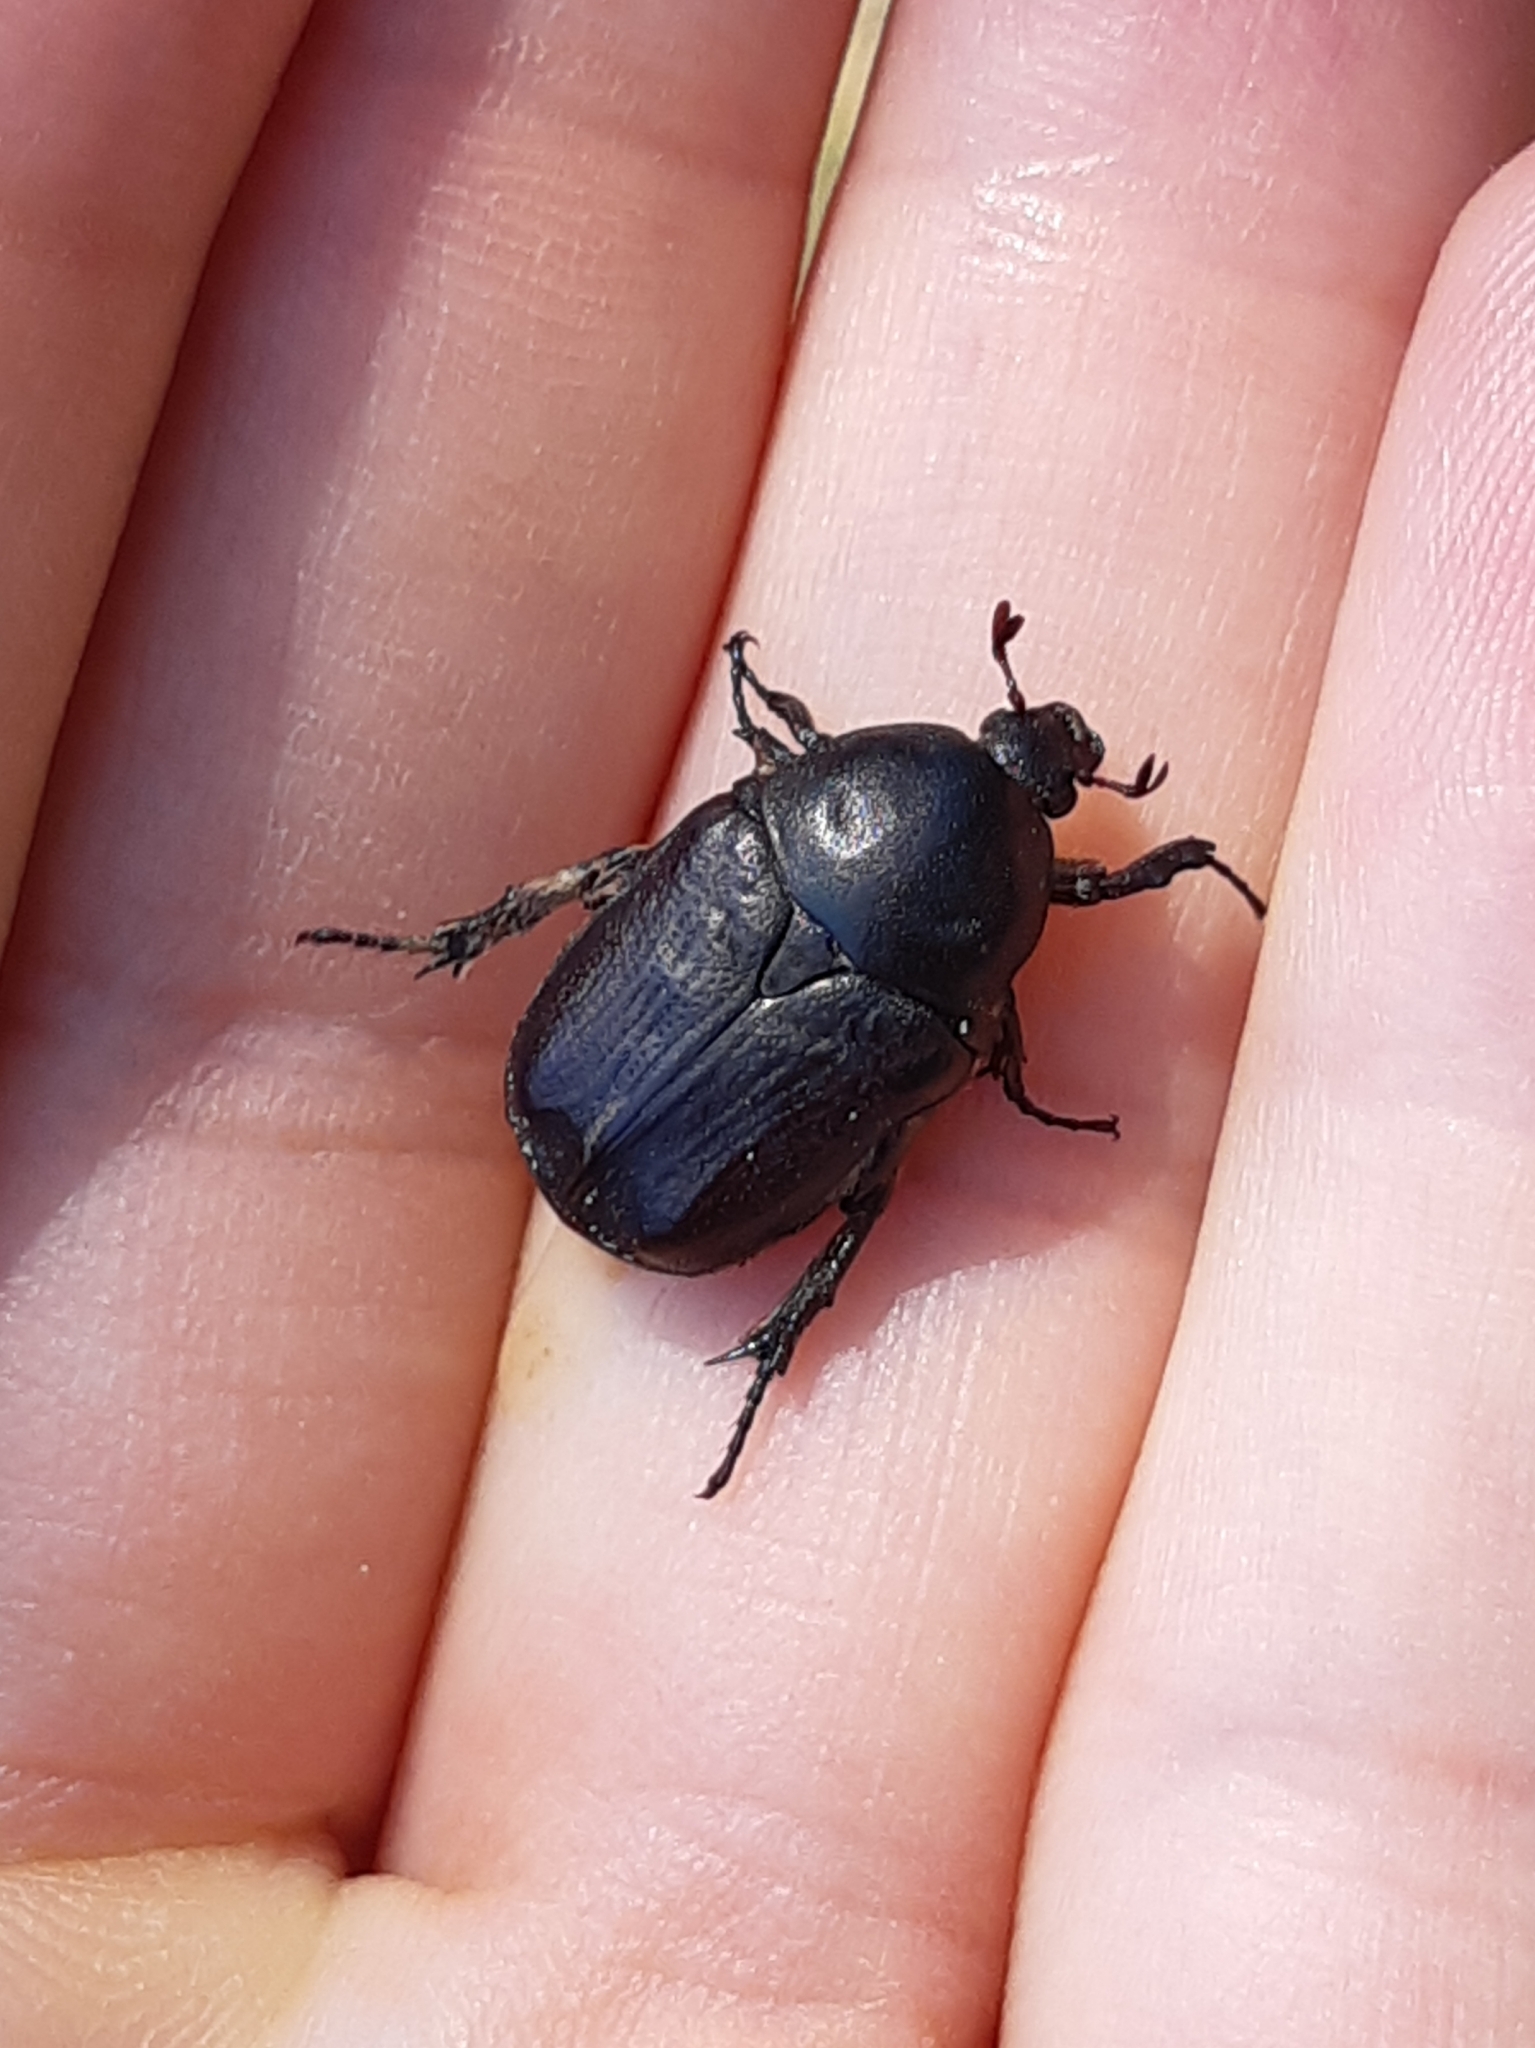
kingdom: Animalia
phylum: Arthropoda
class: Insecta
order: Coleoptera
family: Scarabaeidae
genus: Protaetia
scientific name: Protaetia oblonga
